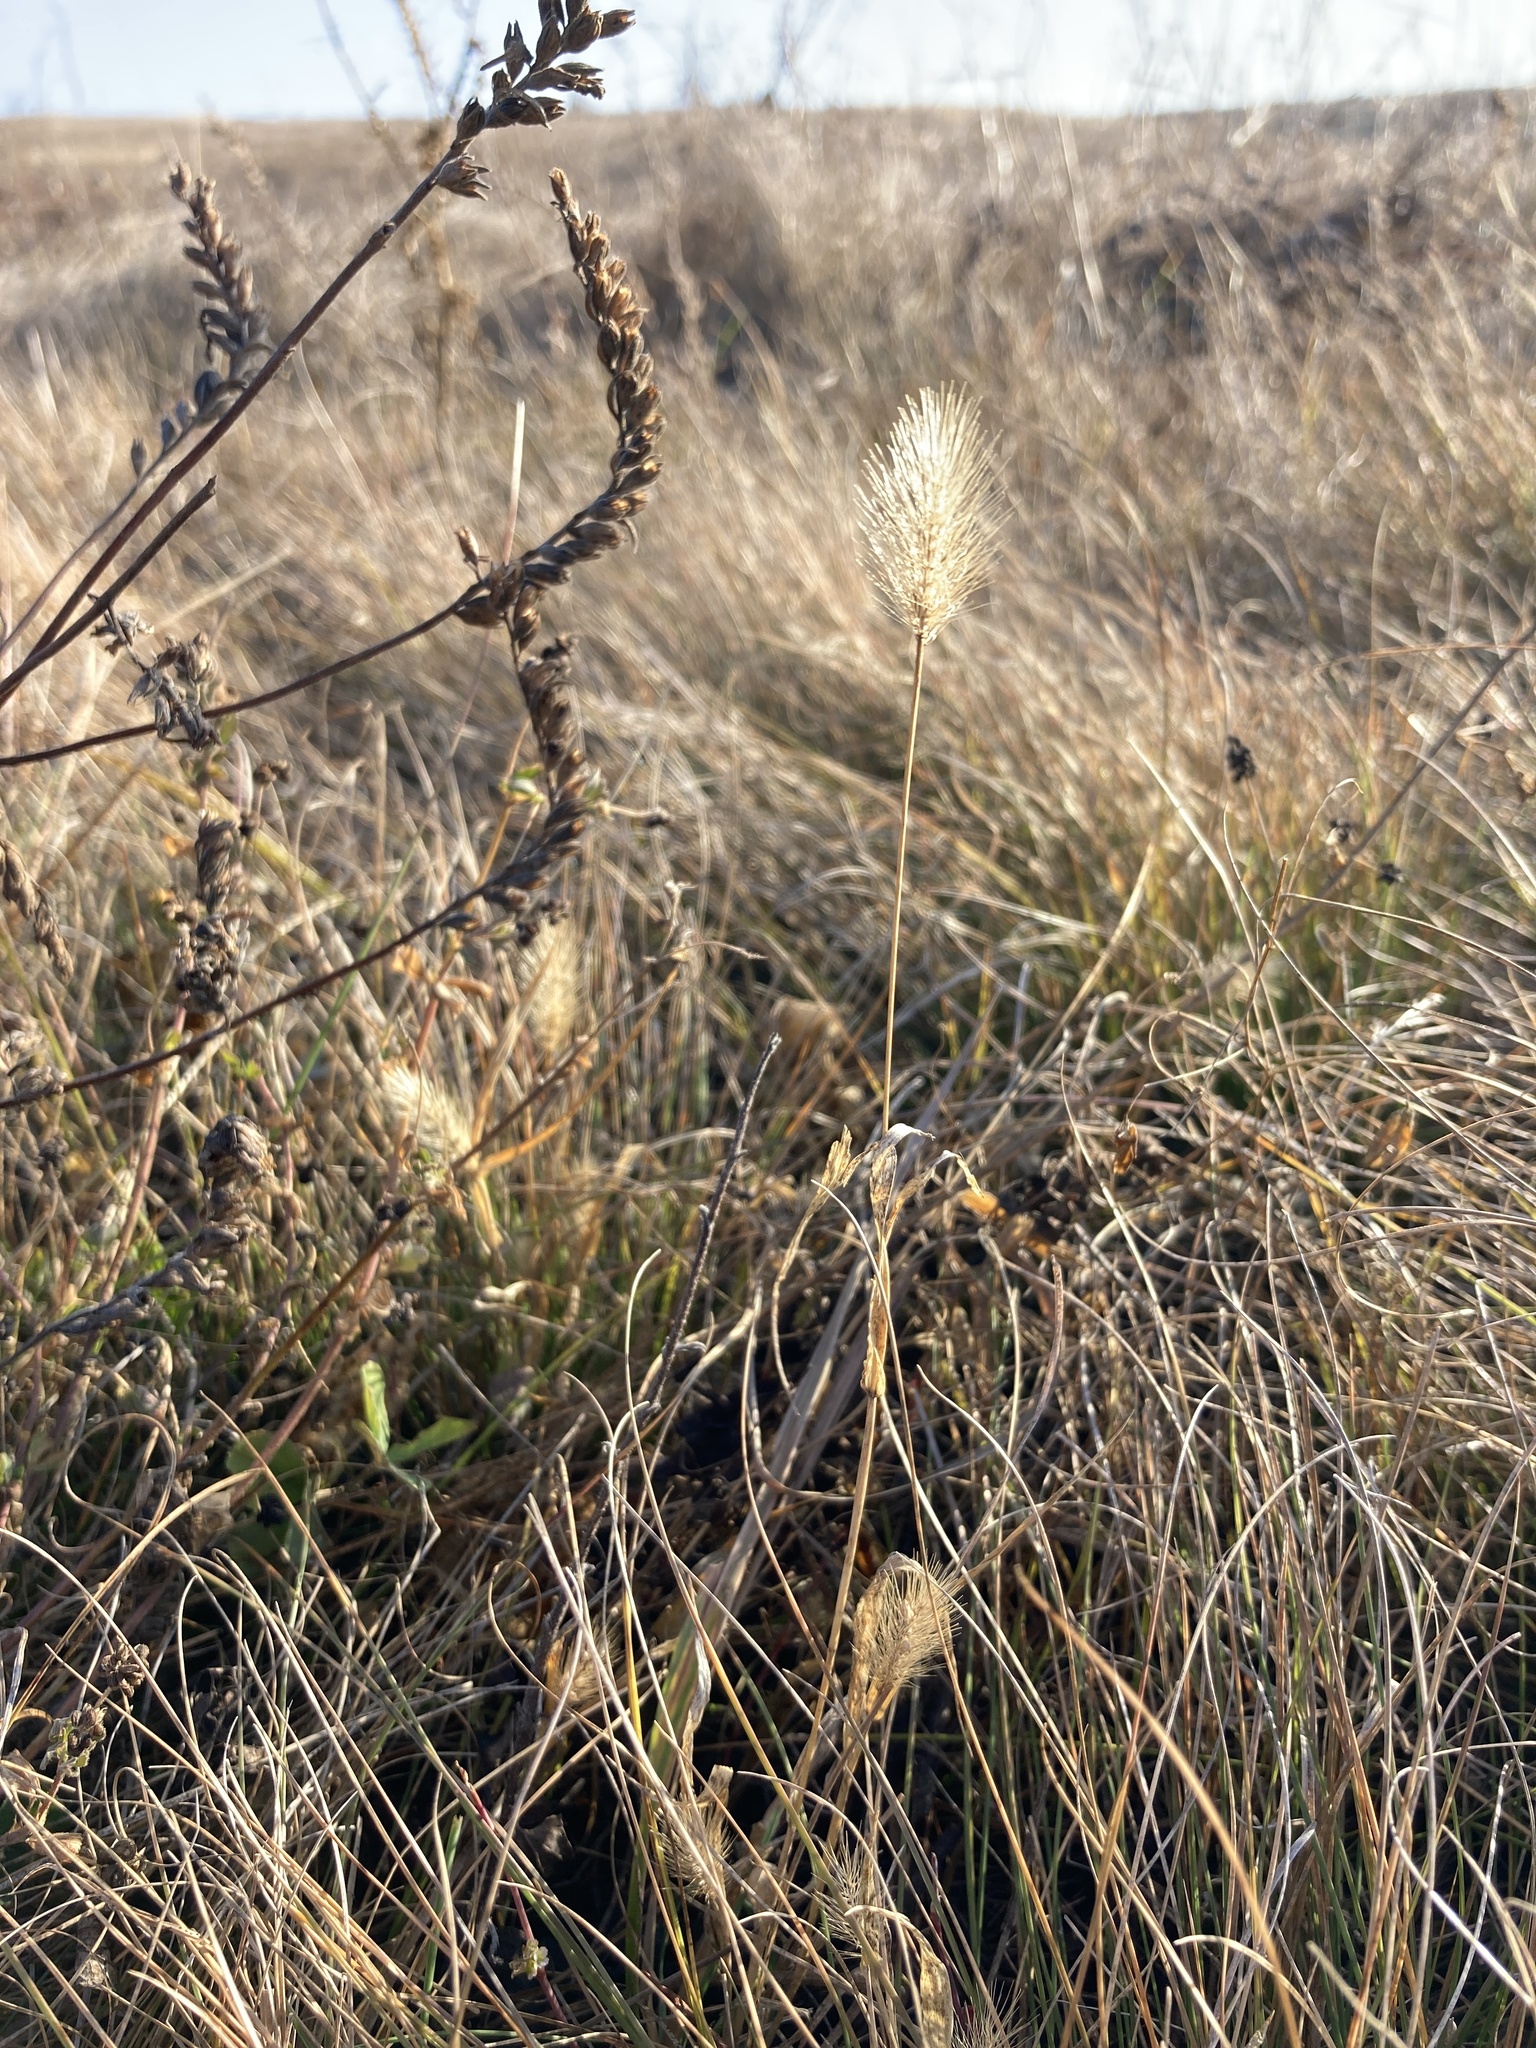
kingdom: Plantae
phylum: Tracheophyta
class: Liliopsida
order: Poales
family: Poaceae
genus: Setaria
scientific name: Setaria viridis
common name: Green bristlegrass
